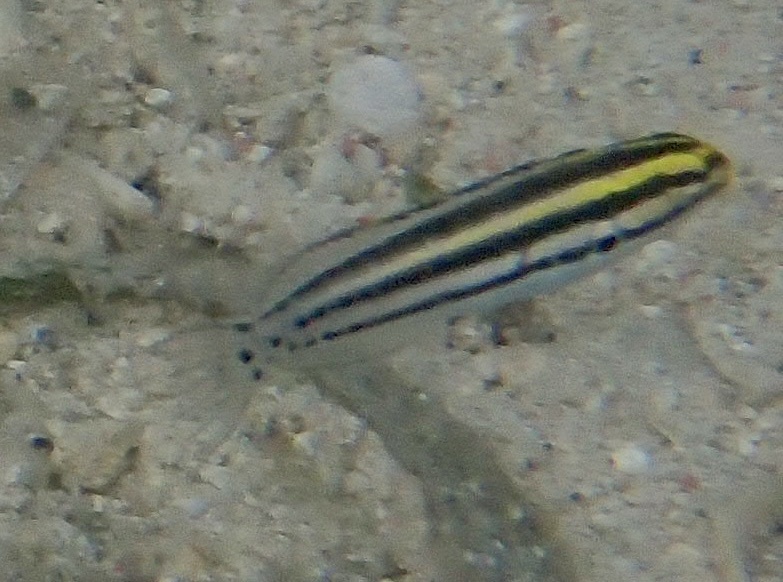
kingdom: Animalia
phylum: Chordata
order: Perciformes
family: Blenniidae
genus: Meiacanthus
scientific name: Meiacanthus grammistes
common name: Grammistes blenny
